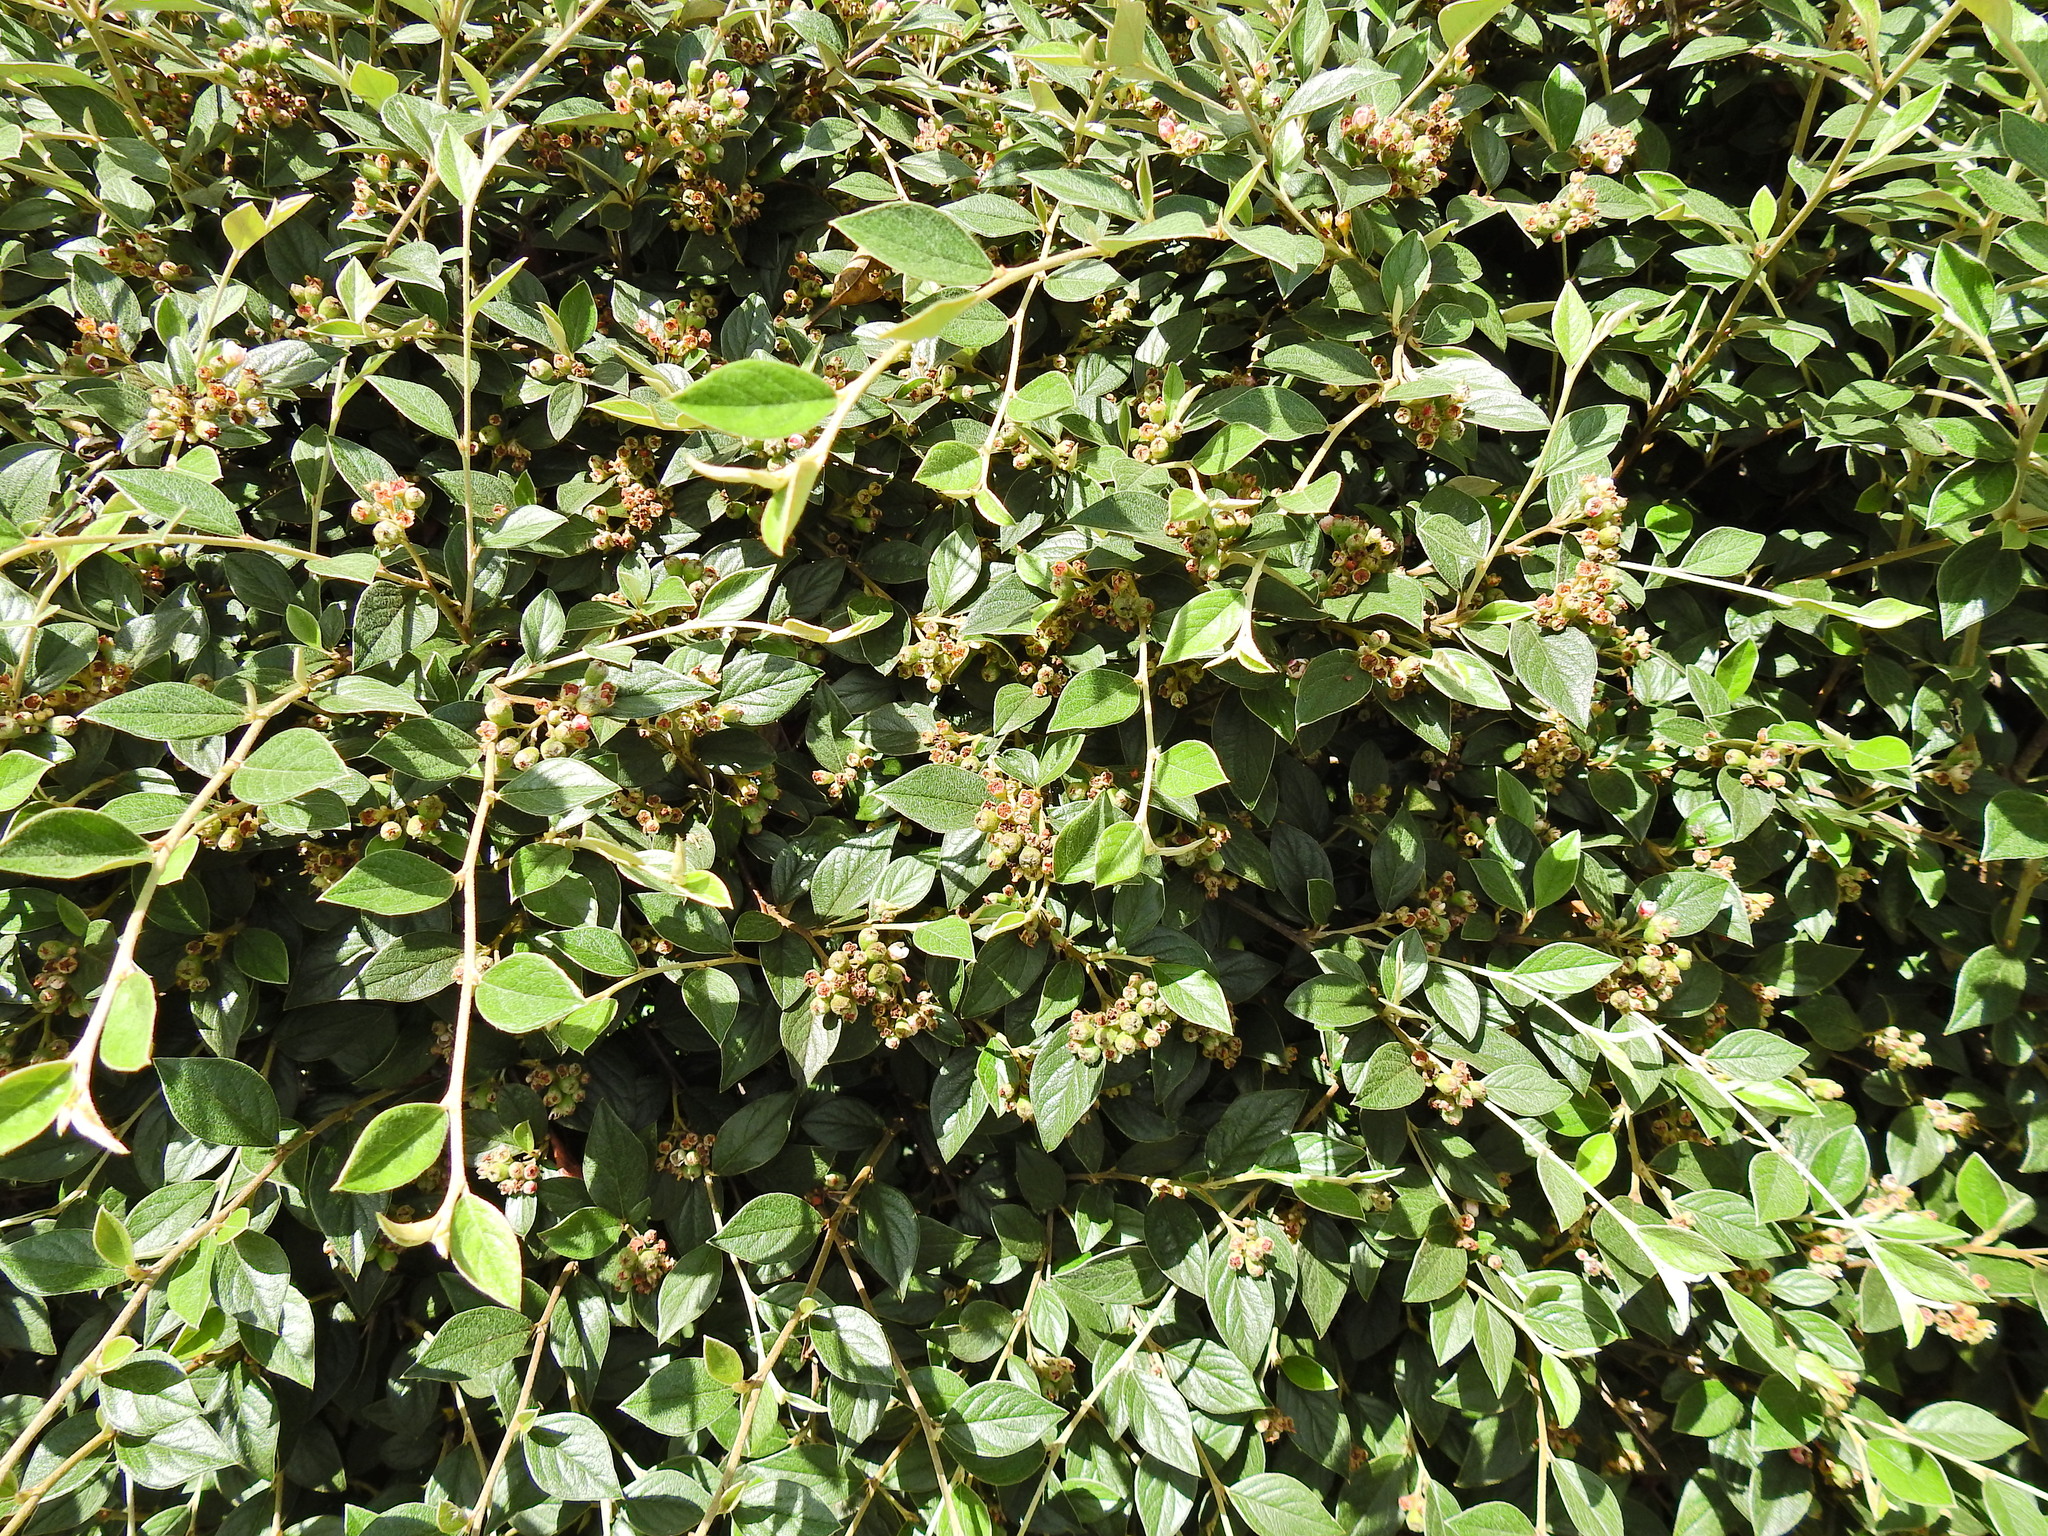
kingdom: Plantae
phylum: Tracheophyta
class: Magnoliopsida
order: Rosales
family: Rosaceae
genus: Cotoneaster
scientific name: Cotoneaster franchetii
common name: Franchet's cotoneaster
